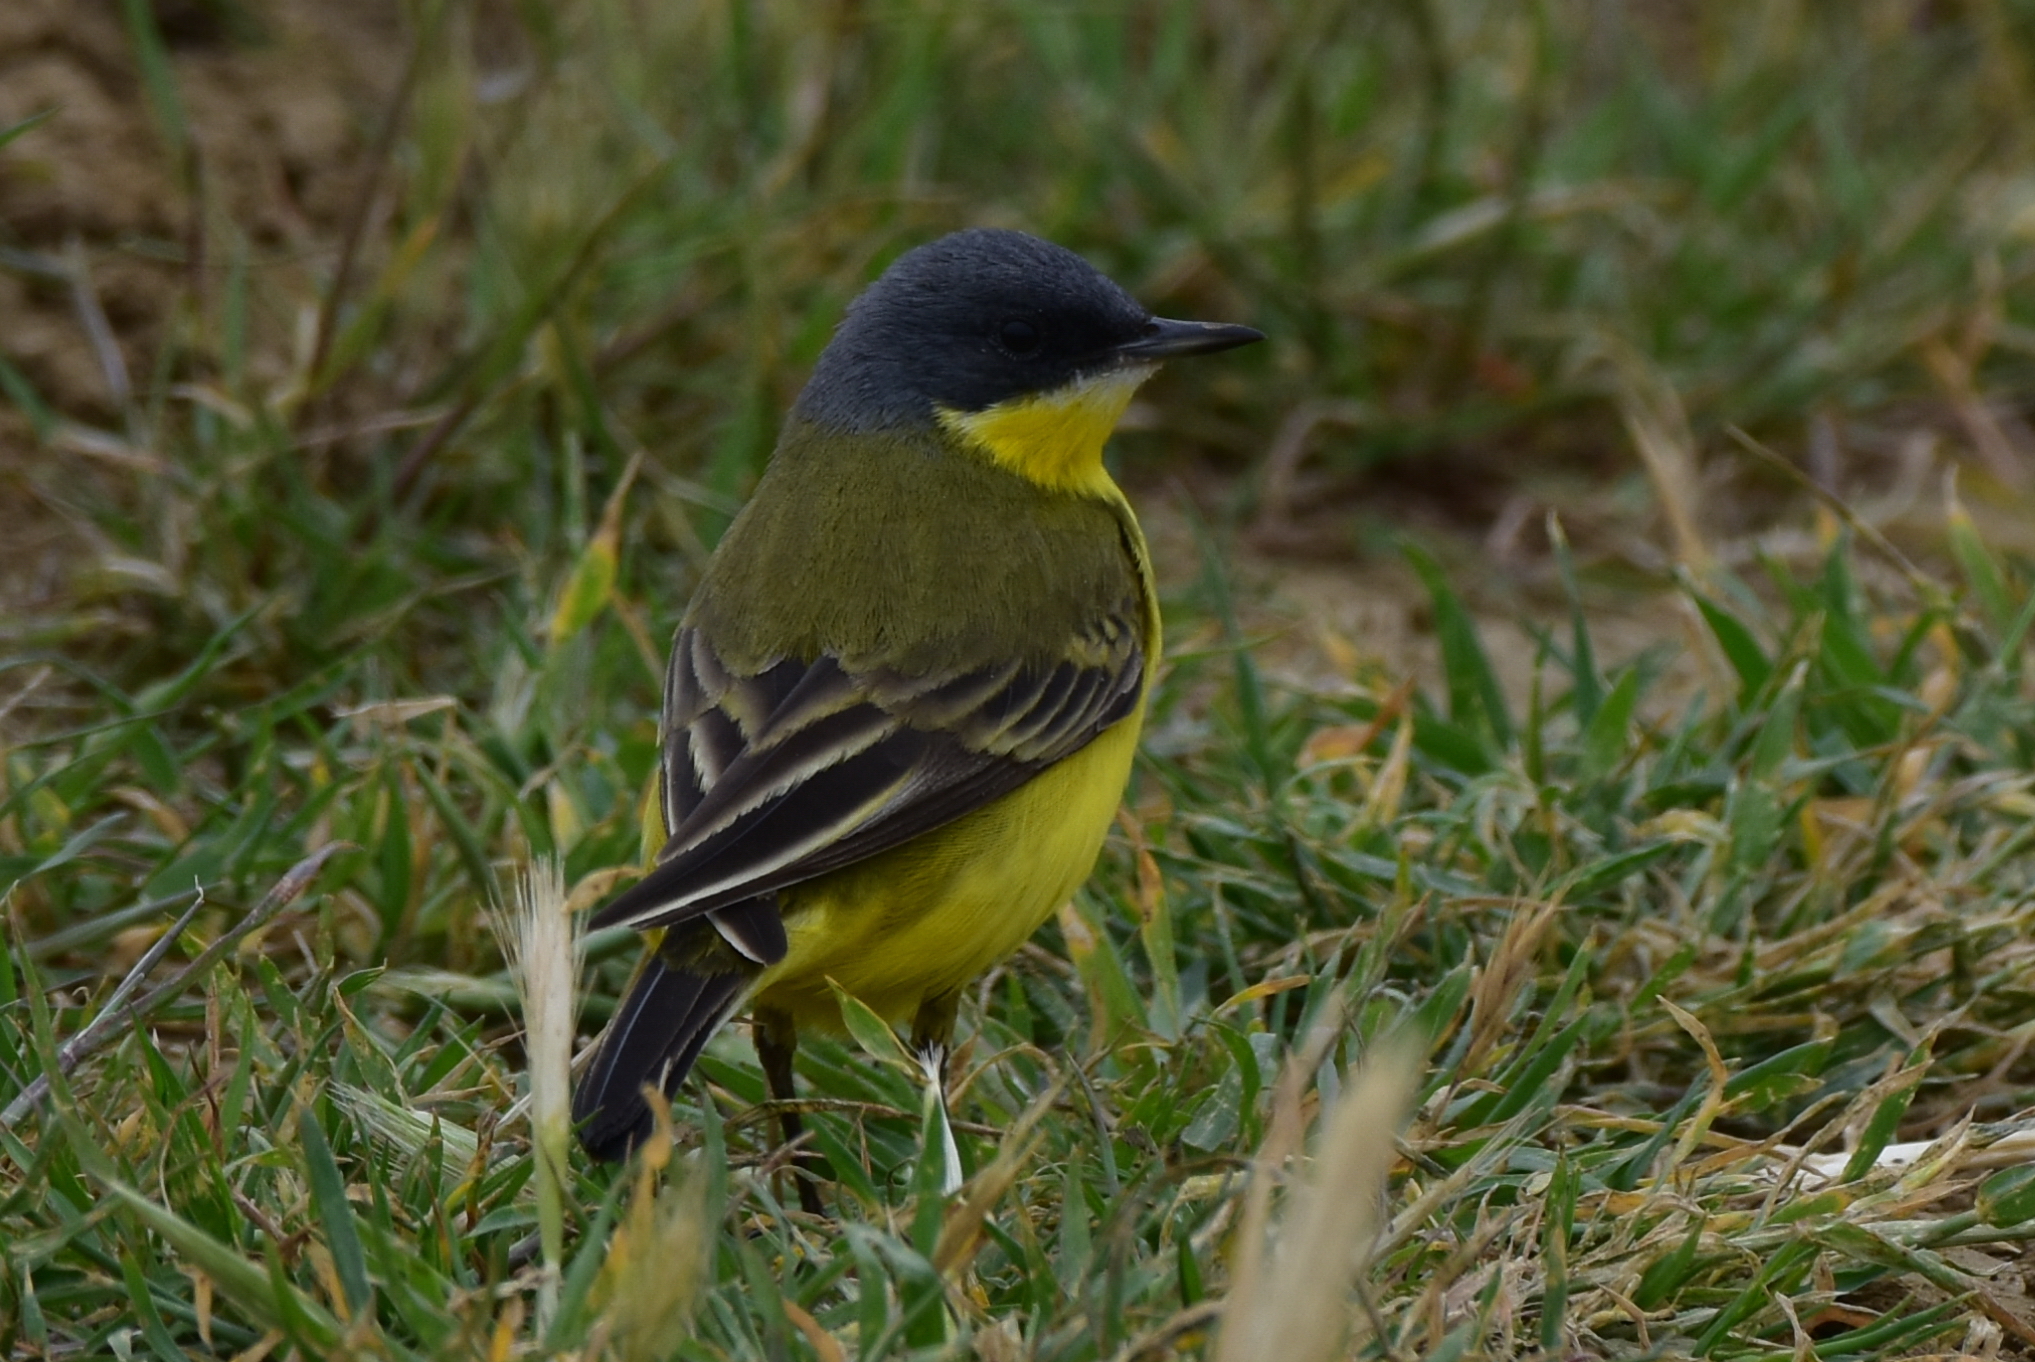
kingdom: Animalia
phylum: Chordata
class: Aves
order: Passeriformes
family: Motacillidae
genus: Motacilla
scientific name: Motacilla flava
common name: Western yellow wagtail
